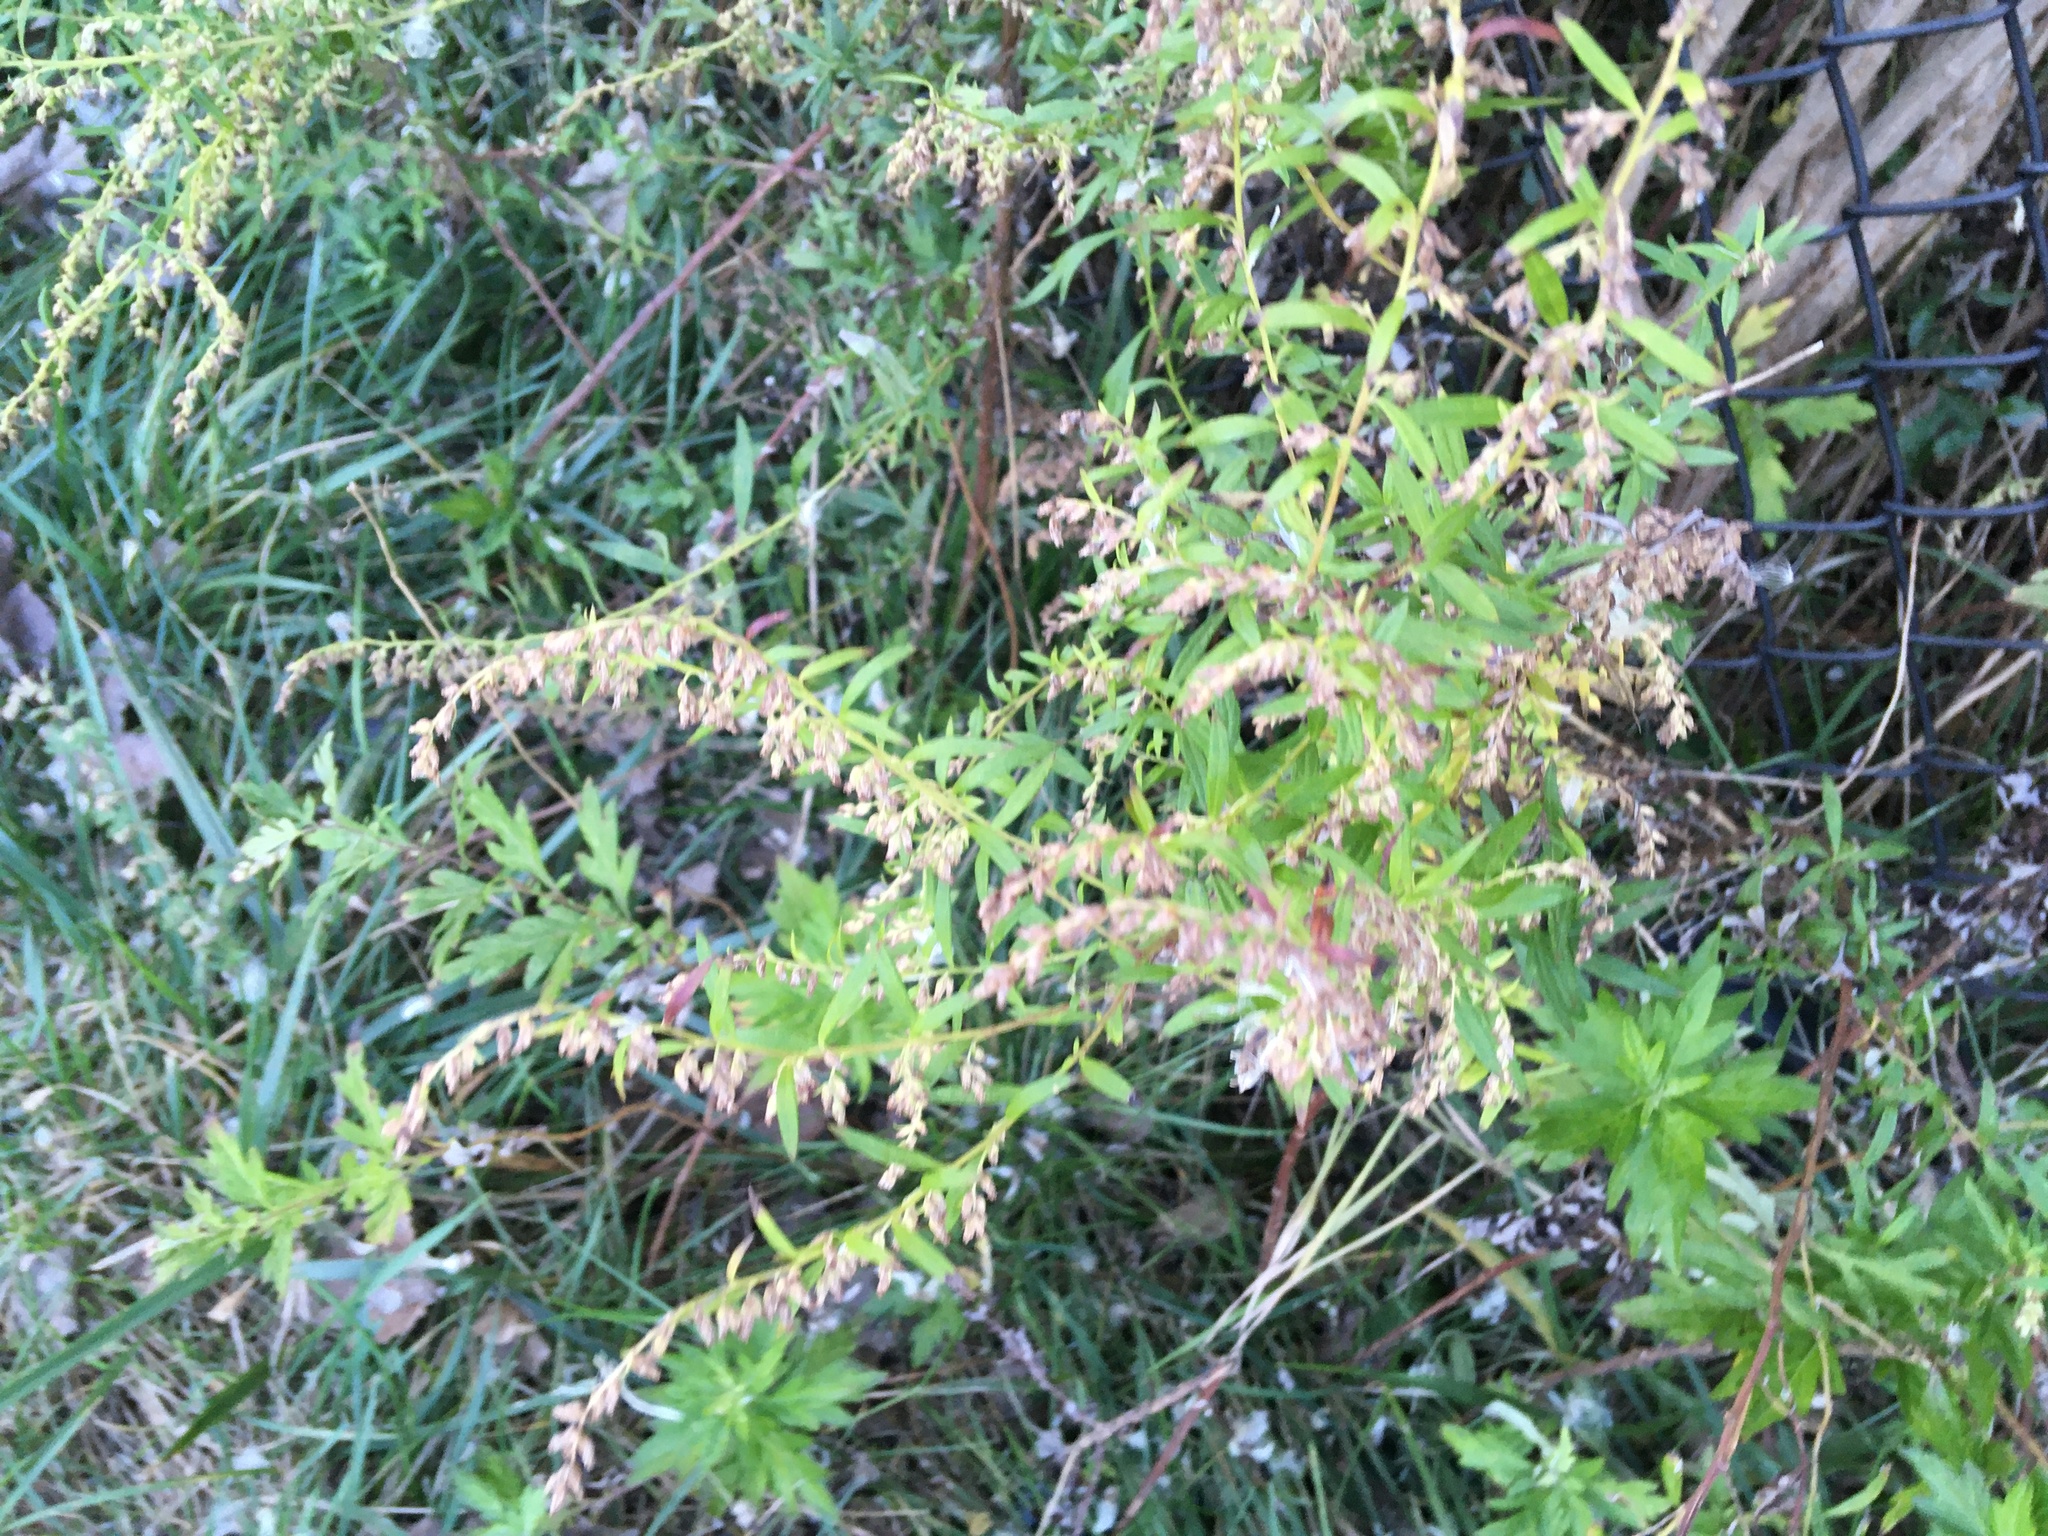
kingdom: Plantae
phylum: Tracheophyta
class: Magnoliopsida
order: Asterales
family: Asteraceae
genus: Artemisia
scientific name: Artemisia vulgaris
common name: Mugwort
